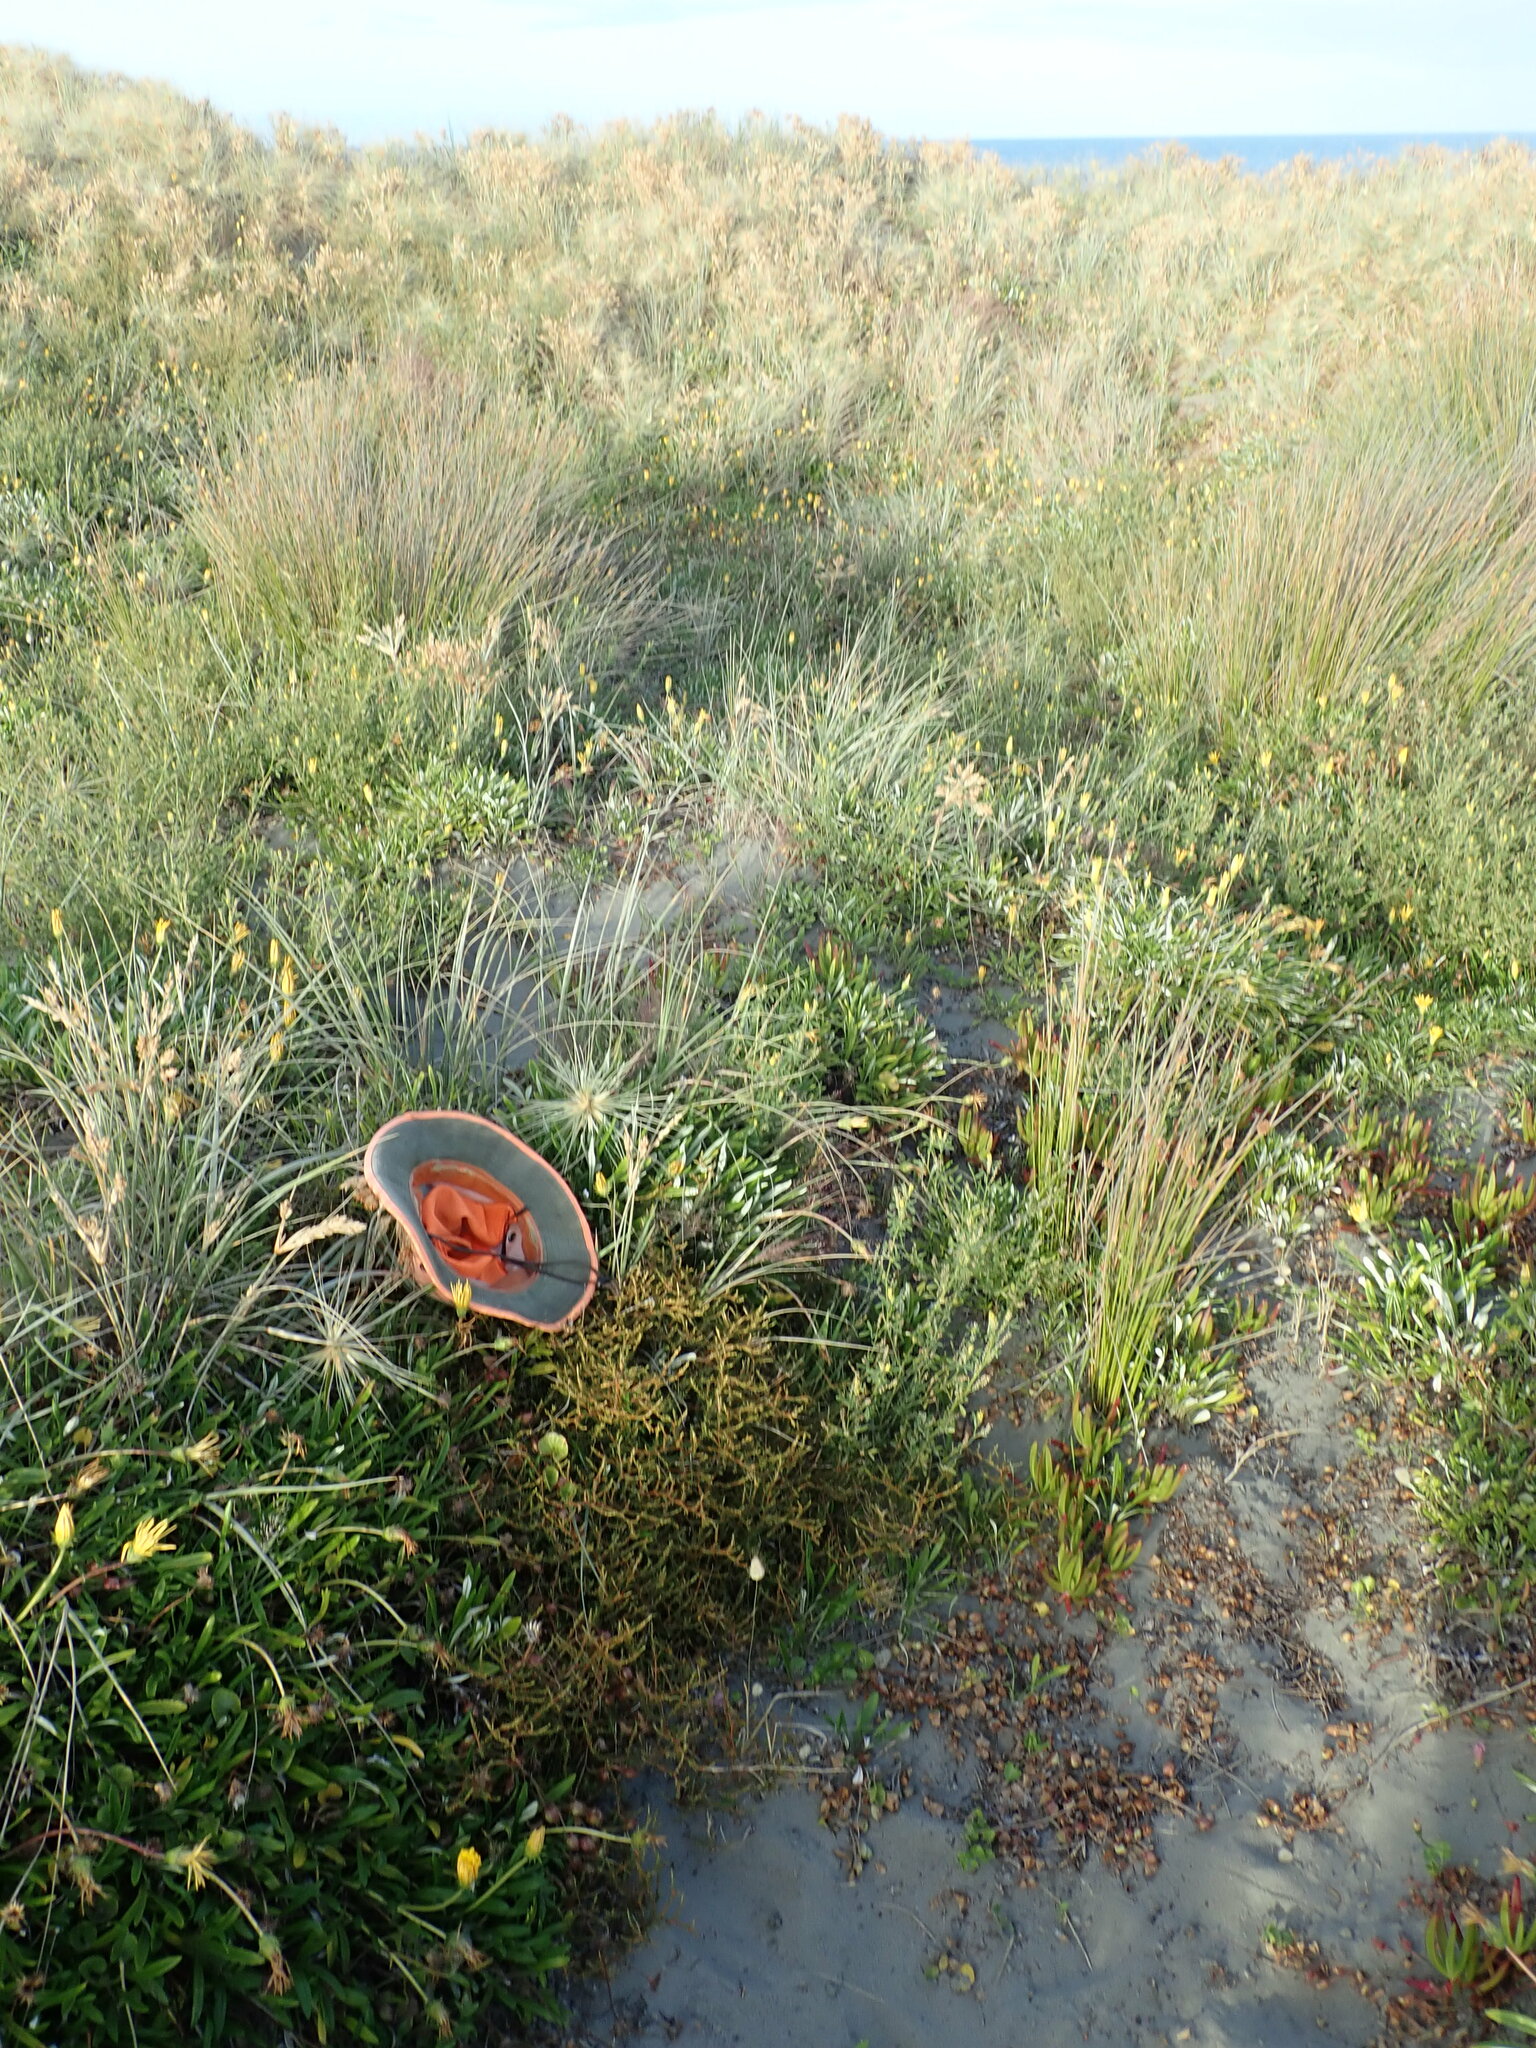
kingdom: Plantae
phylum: Tracheophyta
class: Magnoliopsida
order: Gentianales
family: Rubiaceae
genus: Coprosma
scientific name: Coprosma acerosa
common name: Sand coprosma
